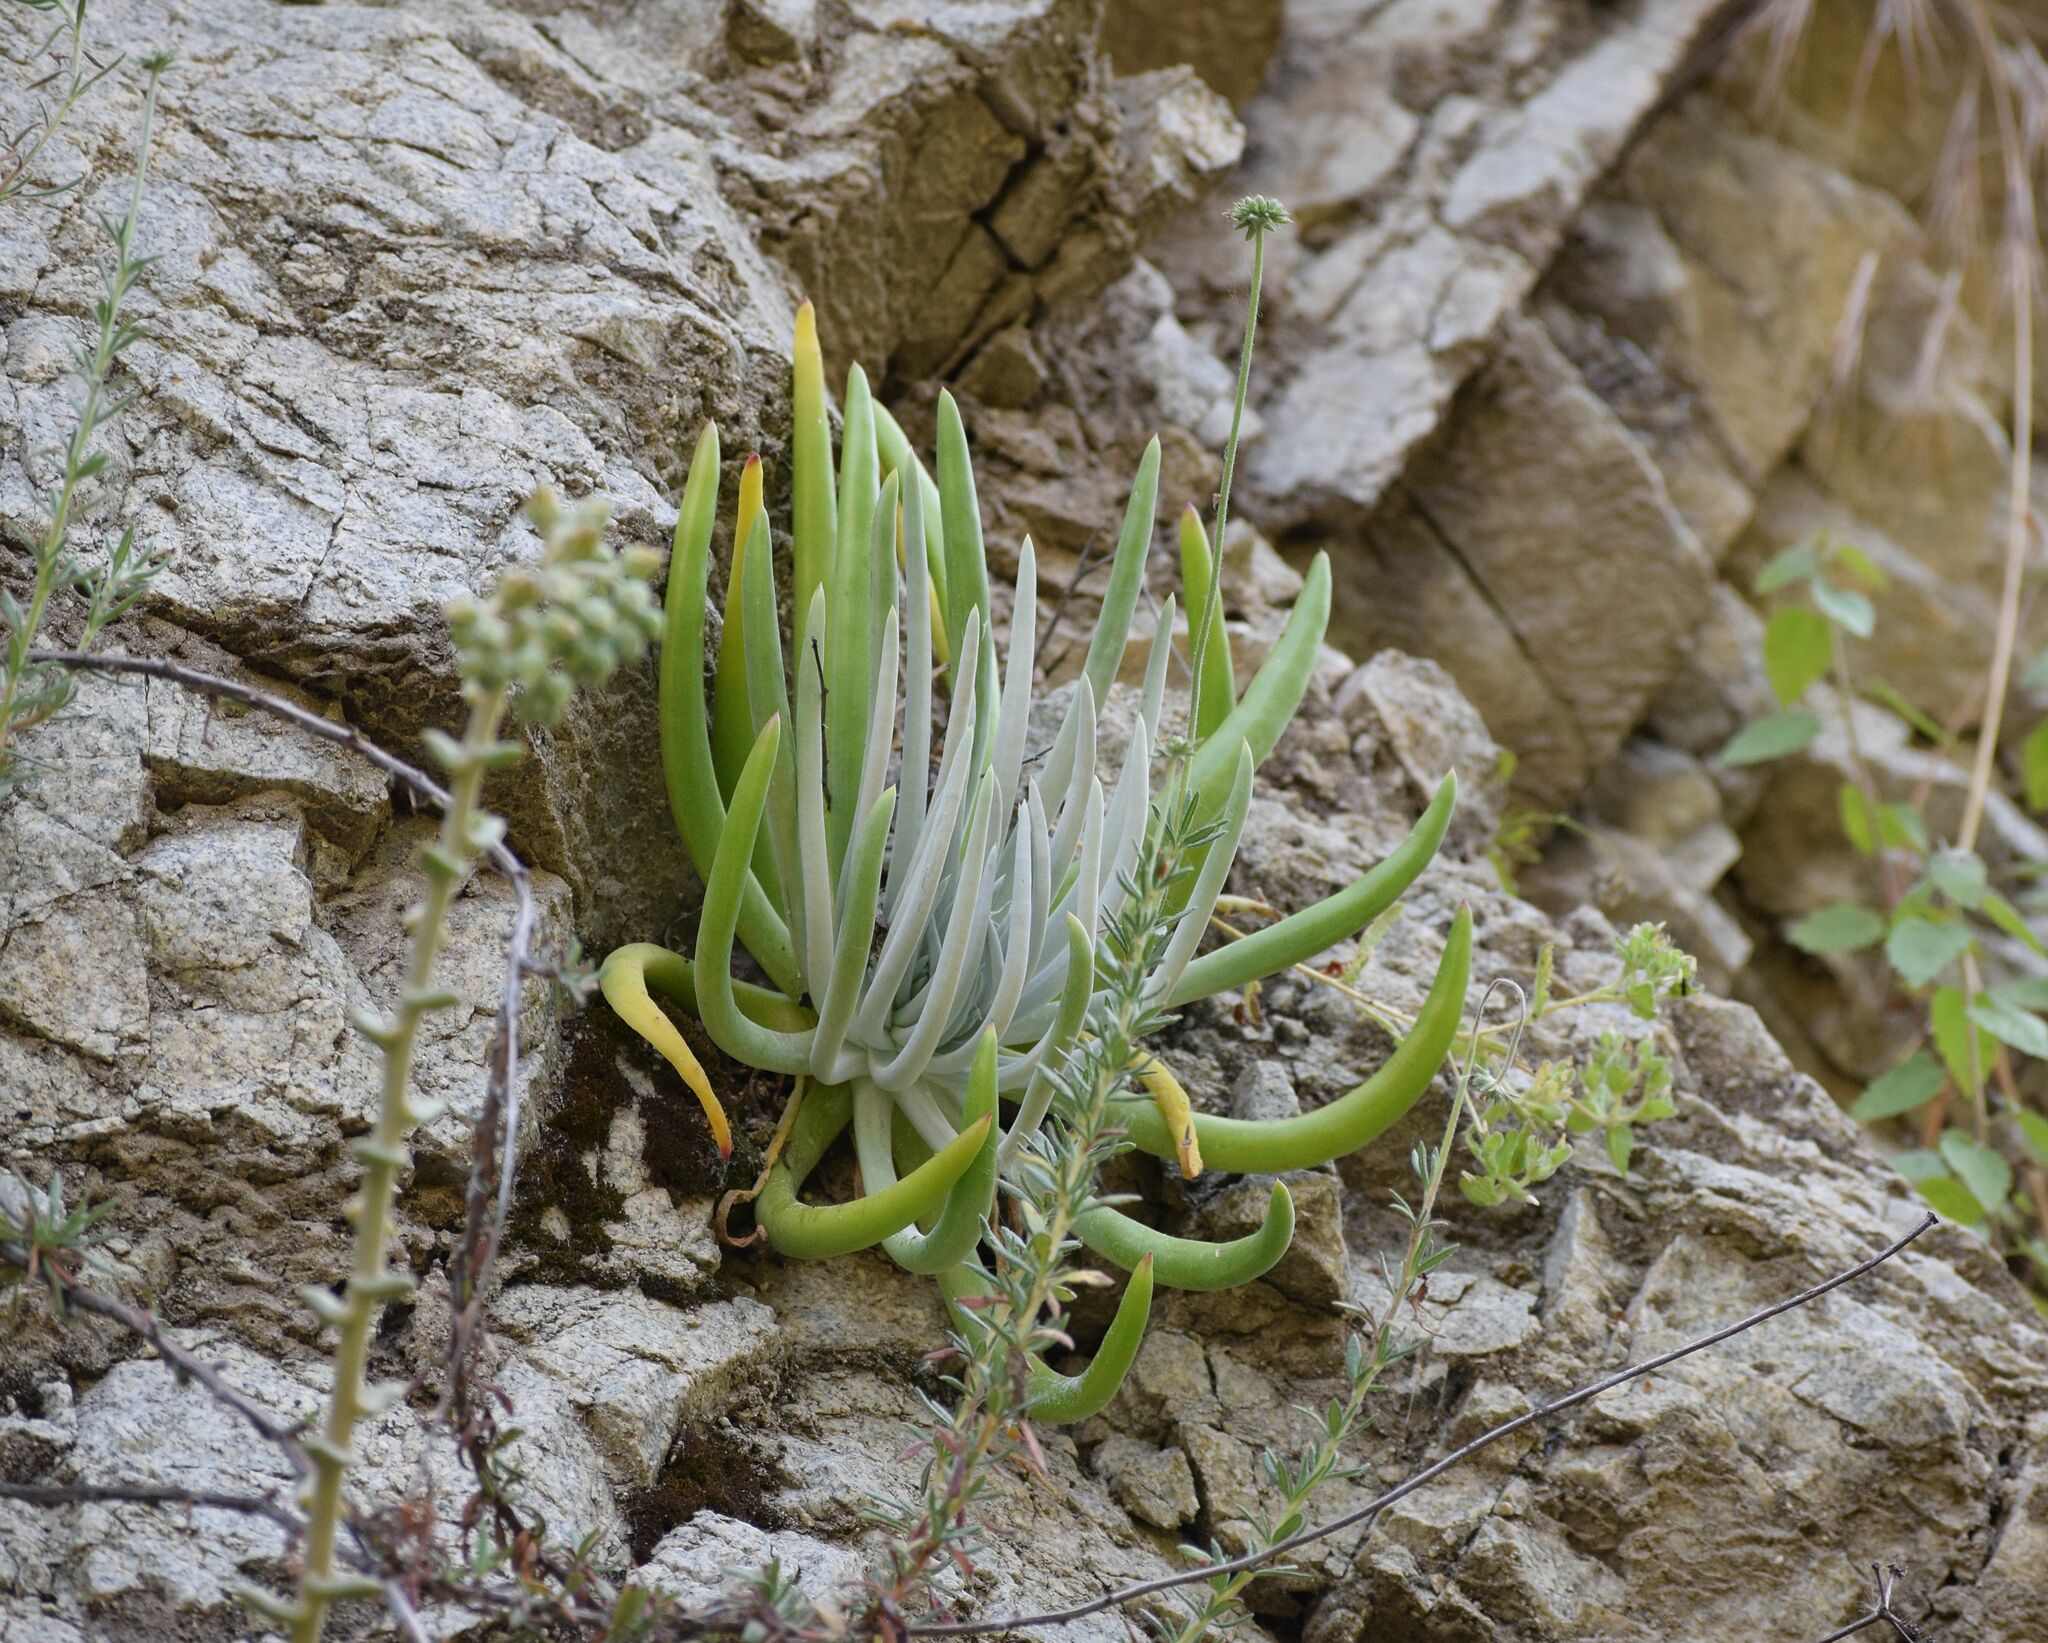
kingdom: Plantae
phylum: Tracheophyta
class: Magnoliopsida
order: Saxifragales
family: Crassulaceae
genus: Dudleya
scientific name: Dudleya densiflora
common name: San gabriel mountains dudleya
